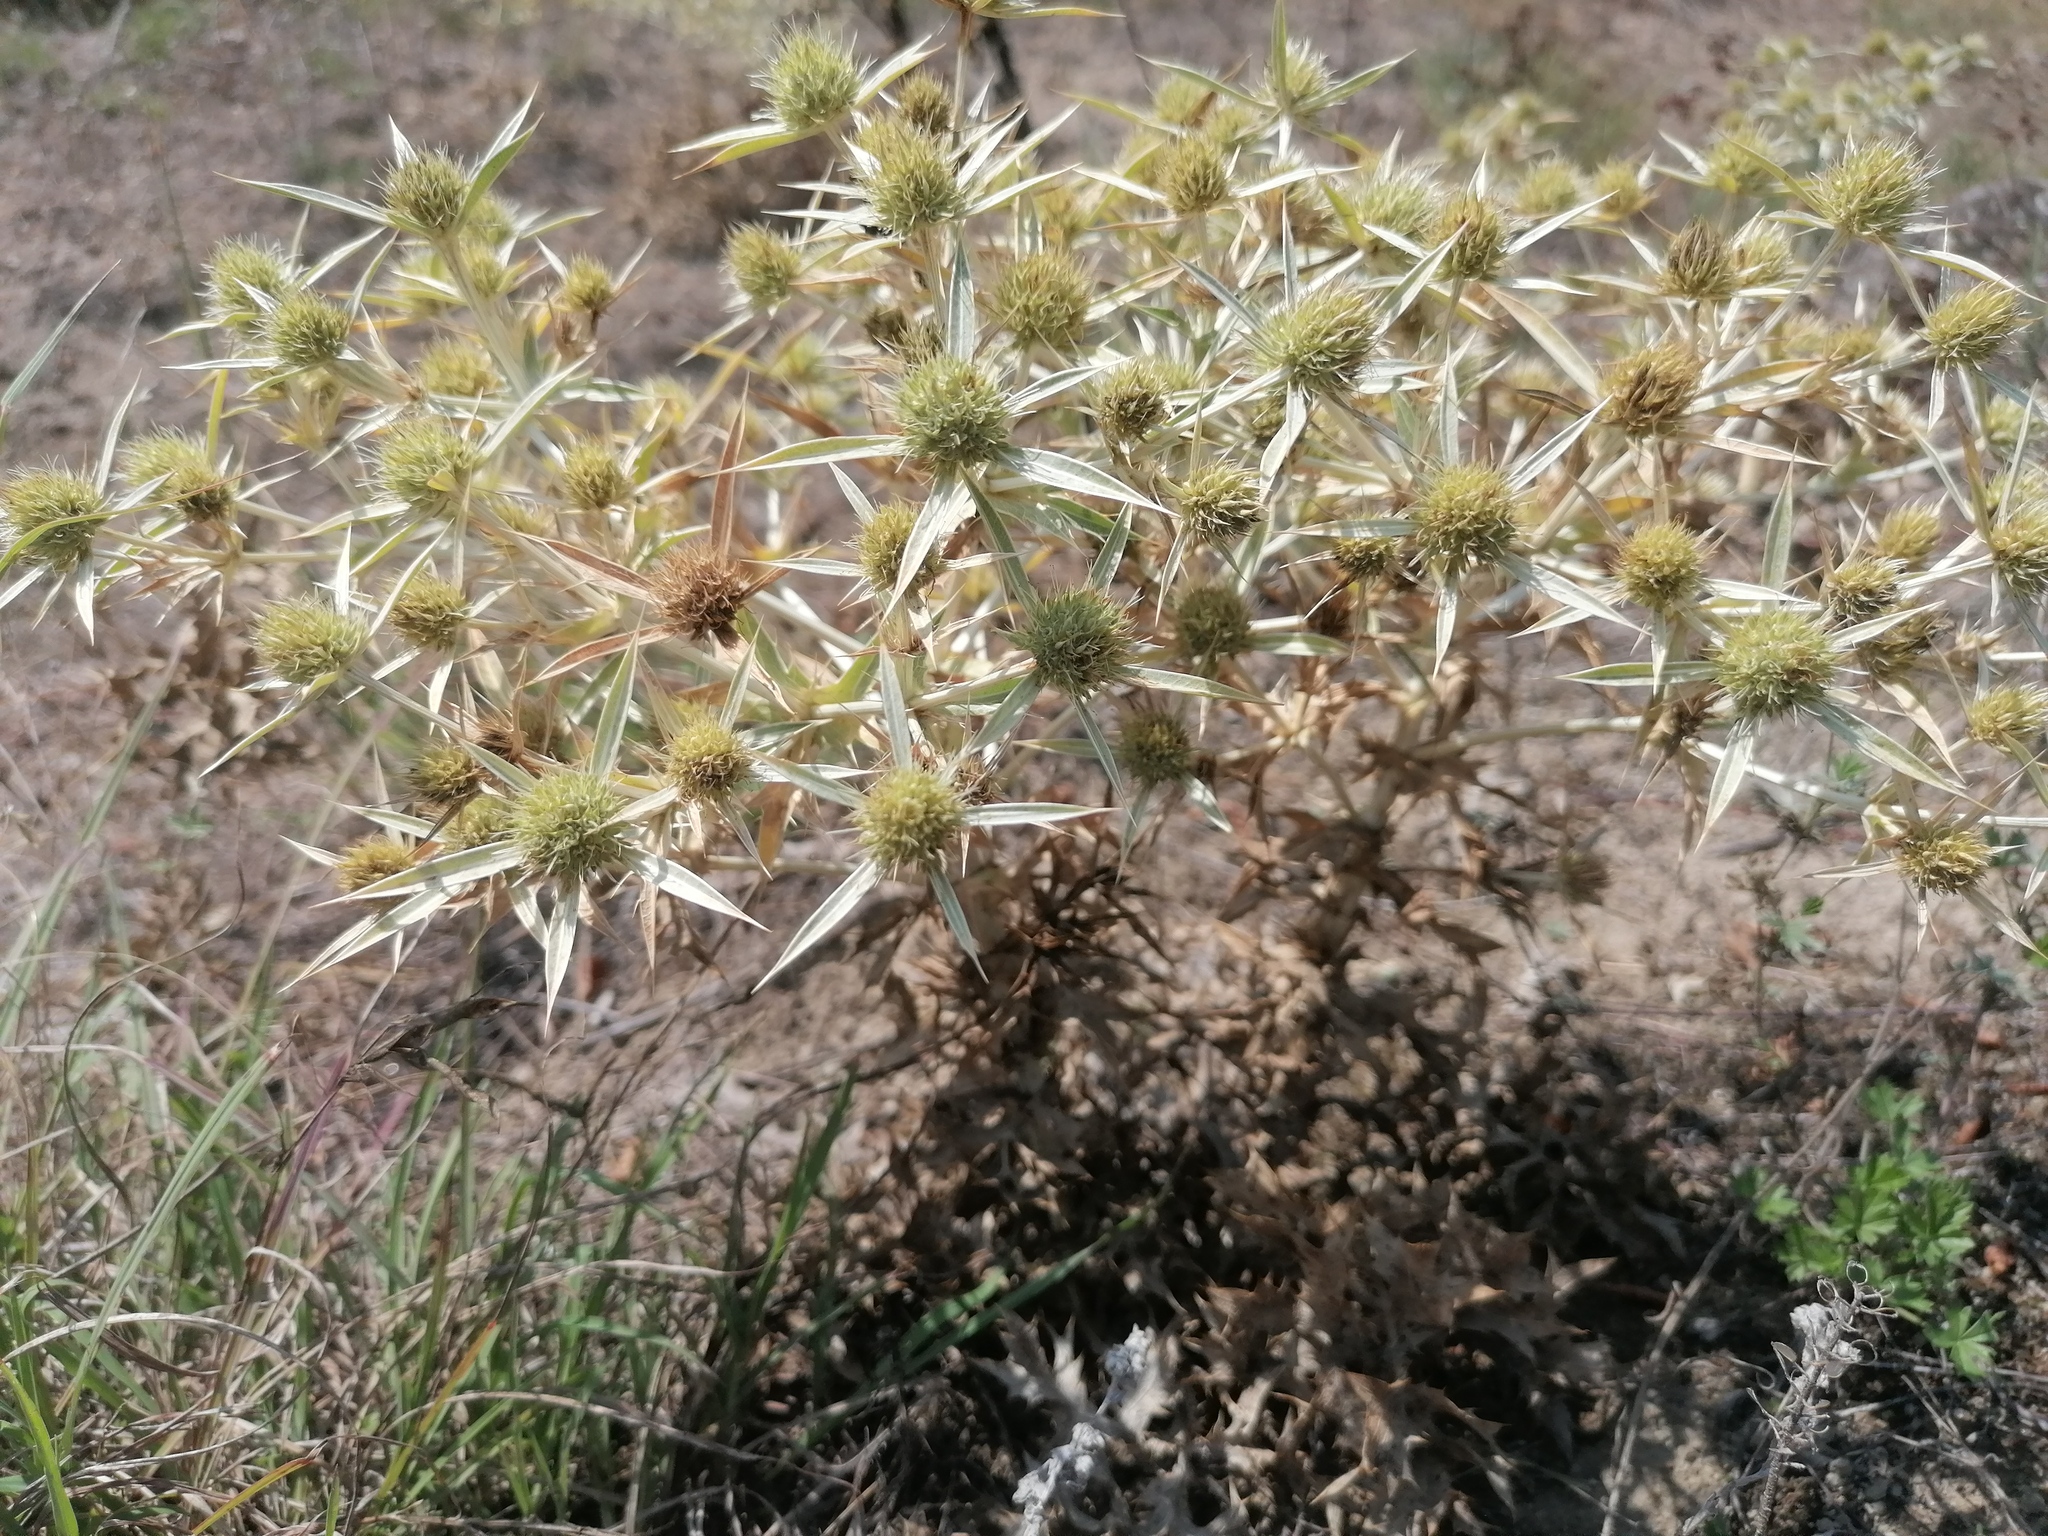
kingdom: Plantae
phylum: Tracheophyta
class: Magnoliopsida
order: Apiales
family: Apiaceae
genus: Eryngium
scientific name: Eryngium campestre
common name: Field eryngo
